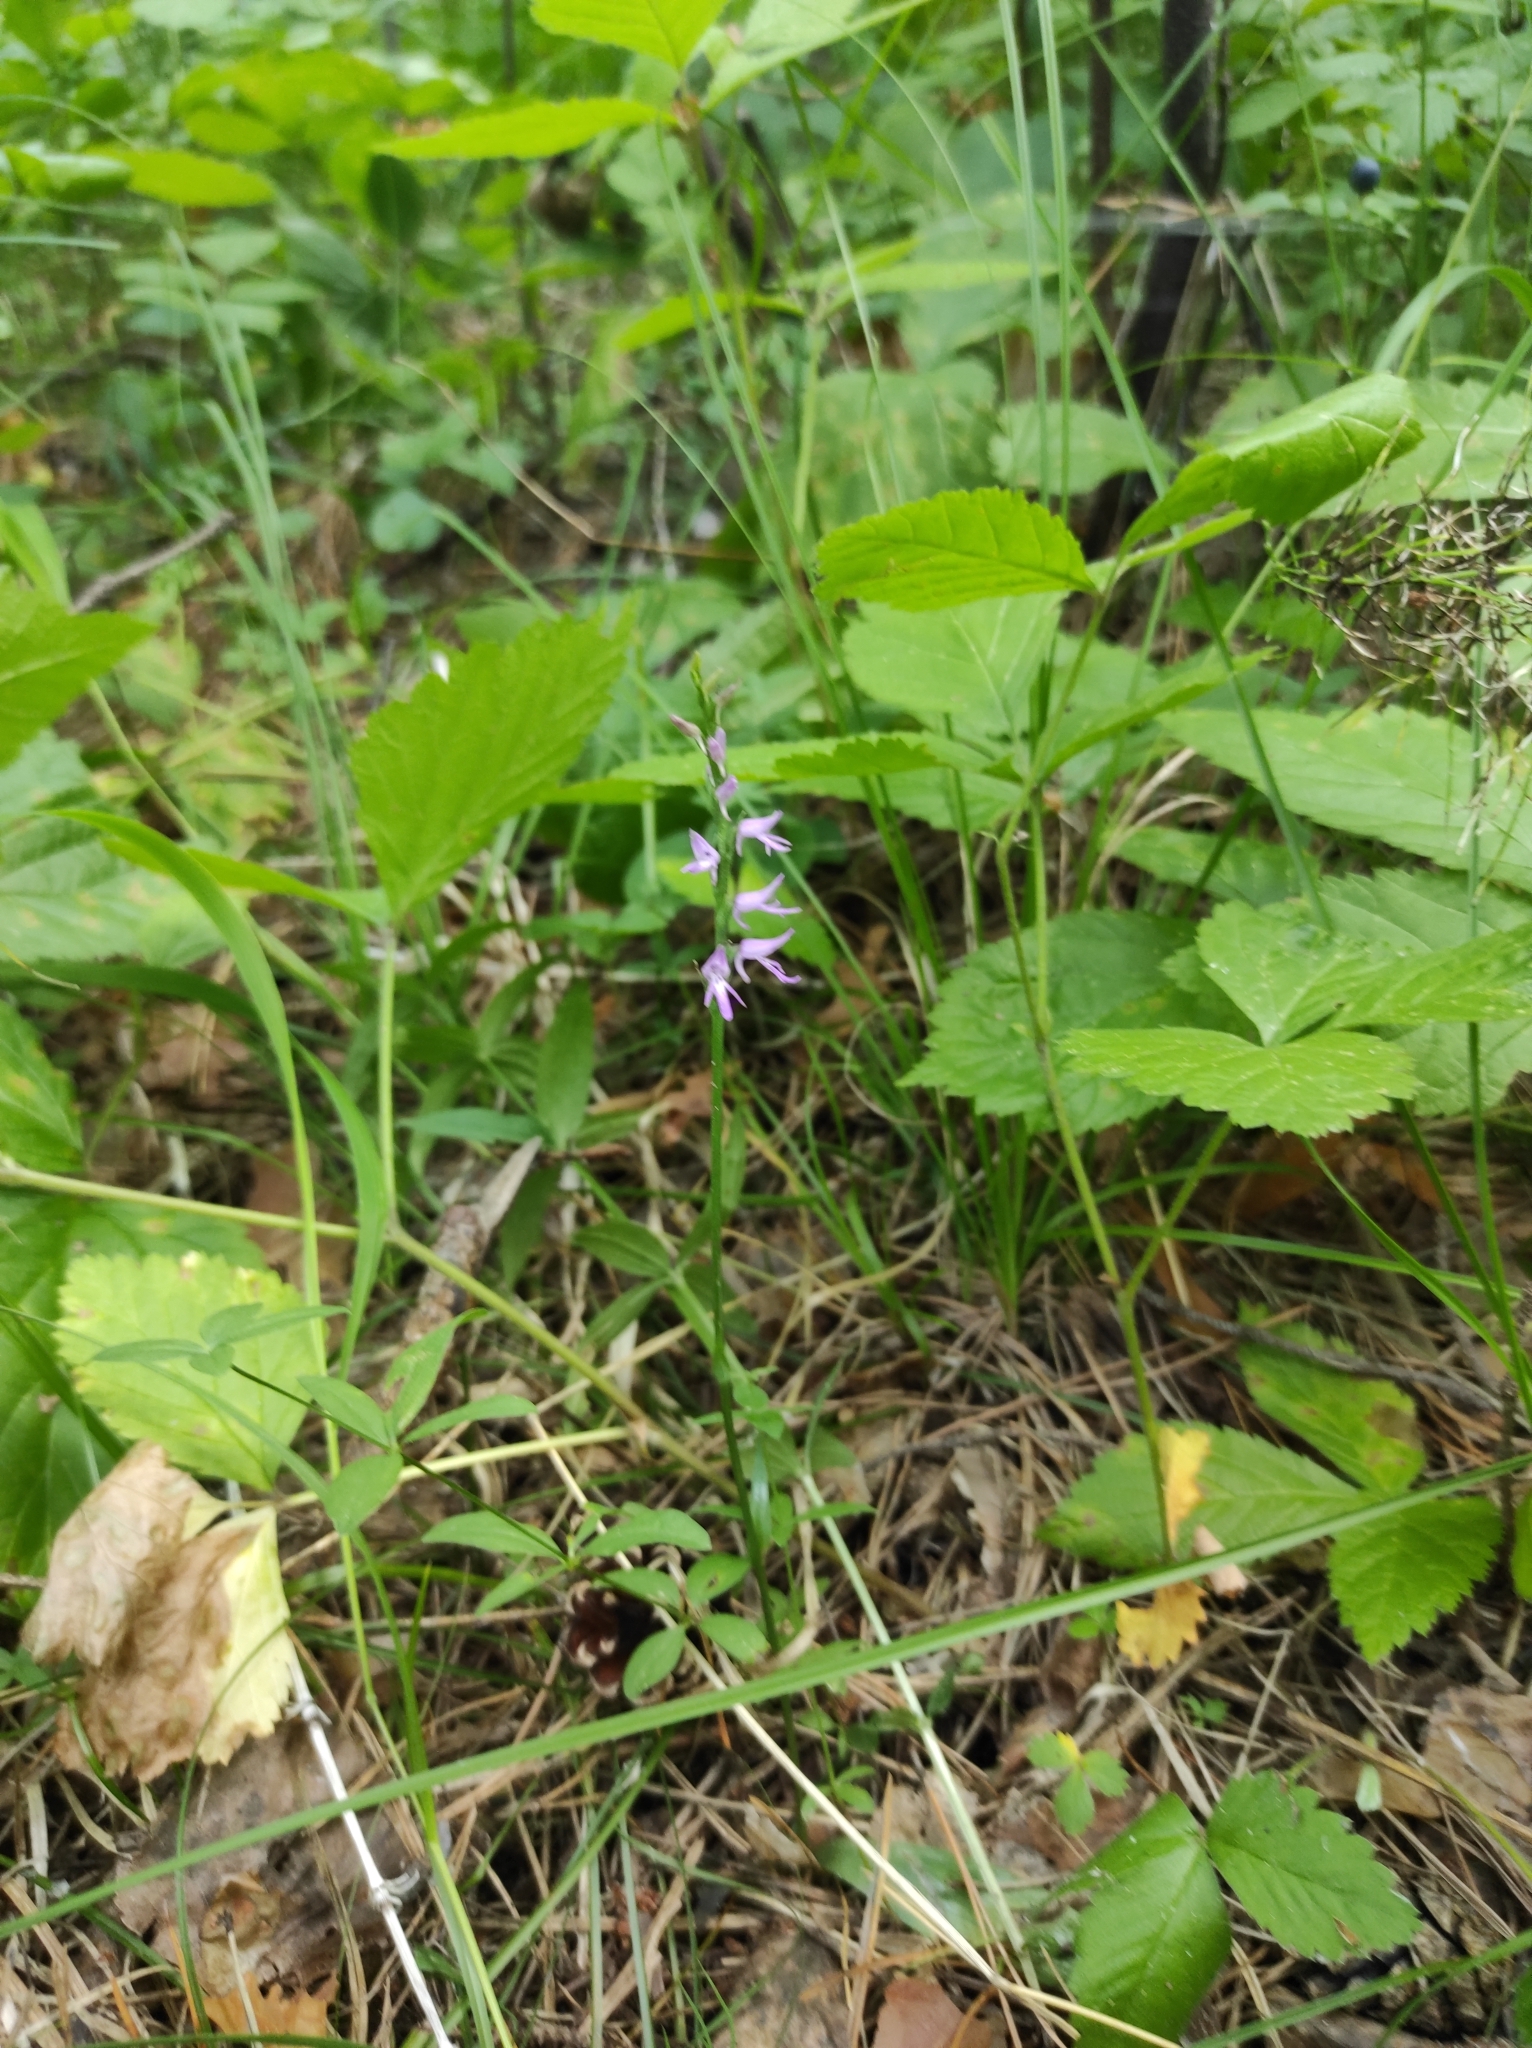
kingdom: Plantae
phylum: Tracheophyta
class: Magnoliopsida
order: Rosales
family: Rosaceae
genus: Rubus
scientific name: Rubus saxatilis
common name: Stone bramble
